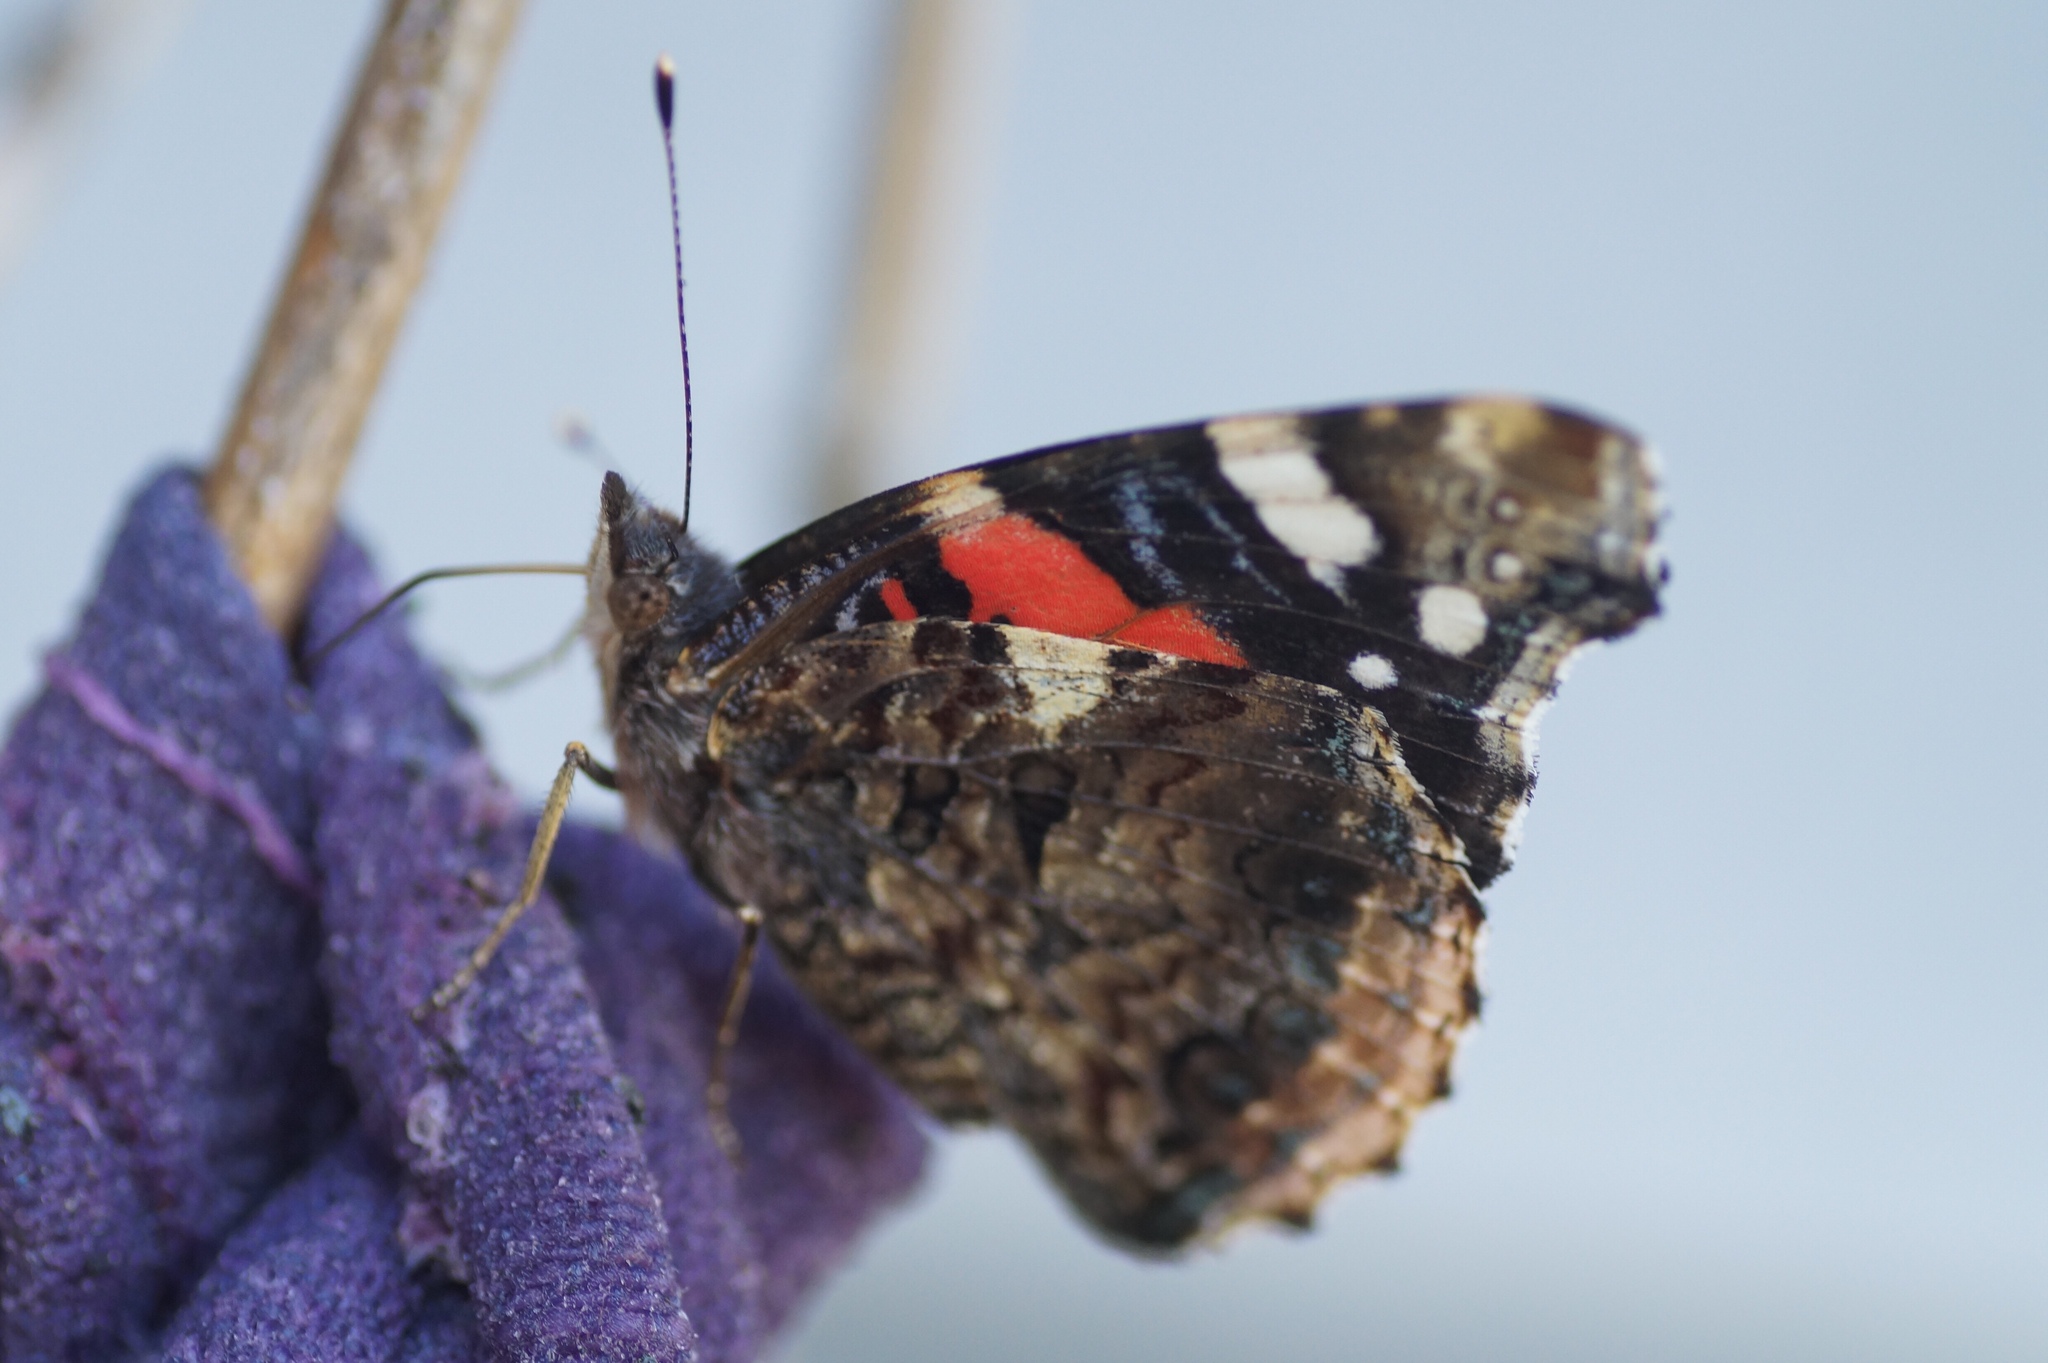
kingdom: Animalia
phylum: Arthropoda
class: Insecta
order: Lepidoptera
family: Nymphalidae
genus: Vanessa
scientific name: Vanessa atalanta
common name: Red admiral
